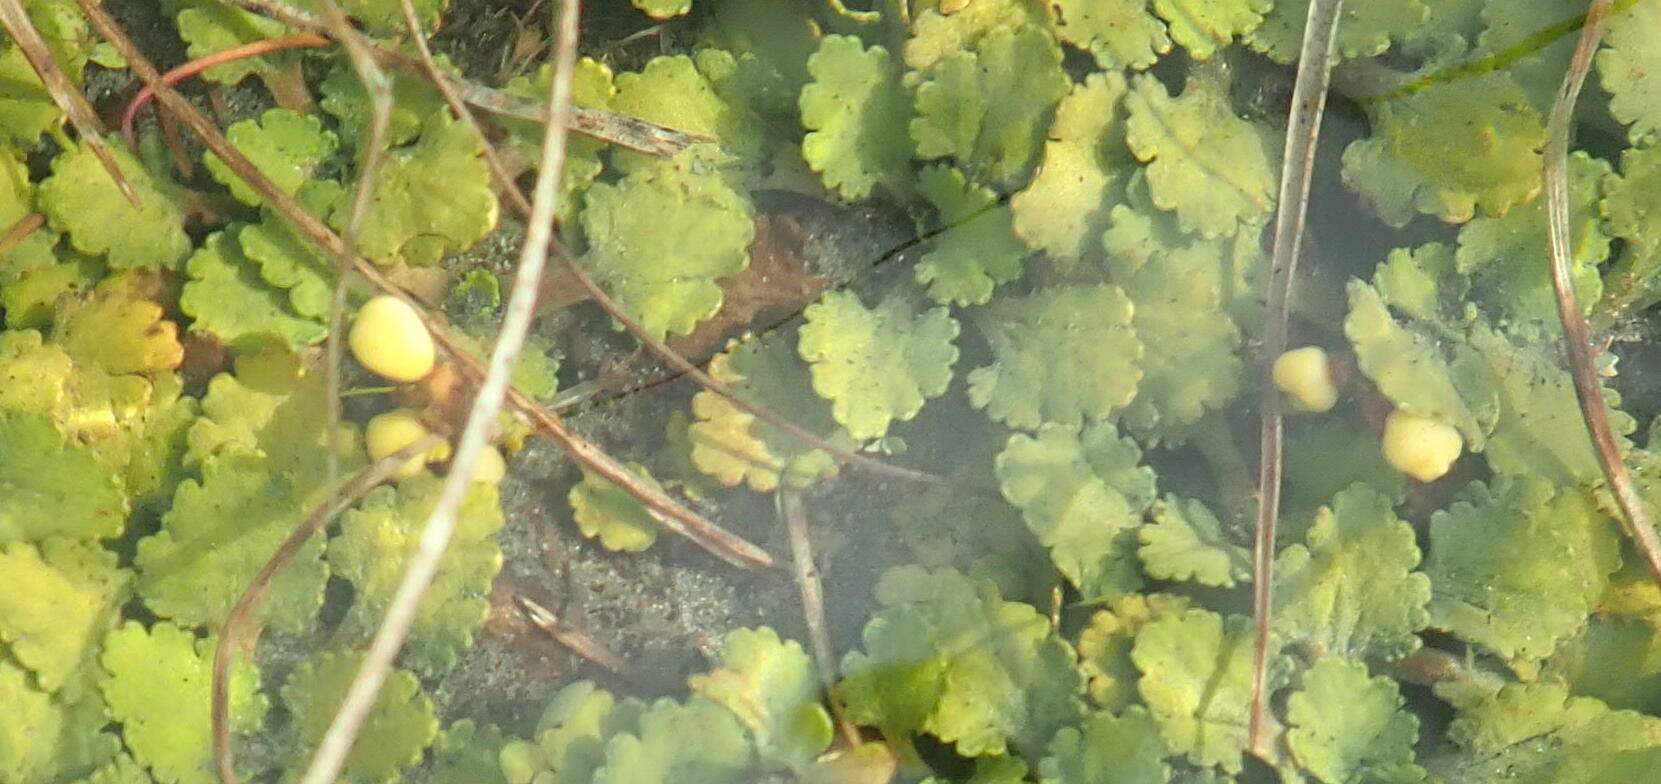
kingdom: Plantae
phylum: Tracheophyta
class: Magnoliopsida
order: Gunnerales
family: Gunneraceae
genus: Gunnera
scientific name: Gunnera dentata
